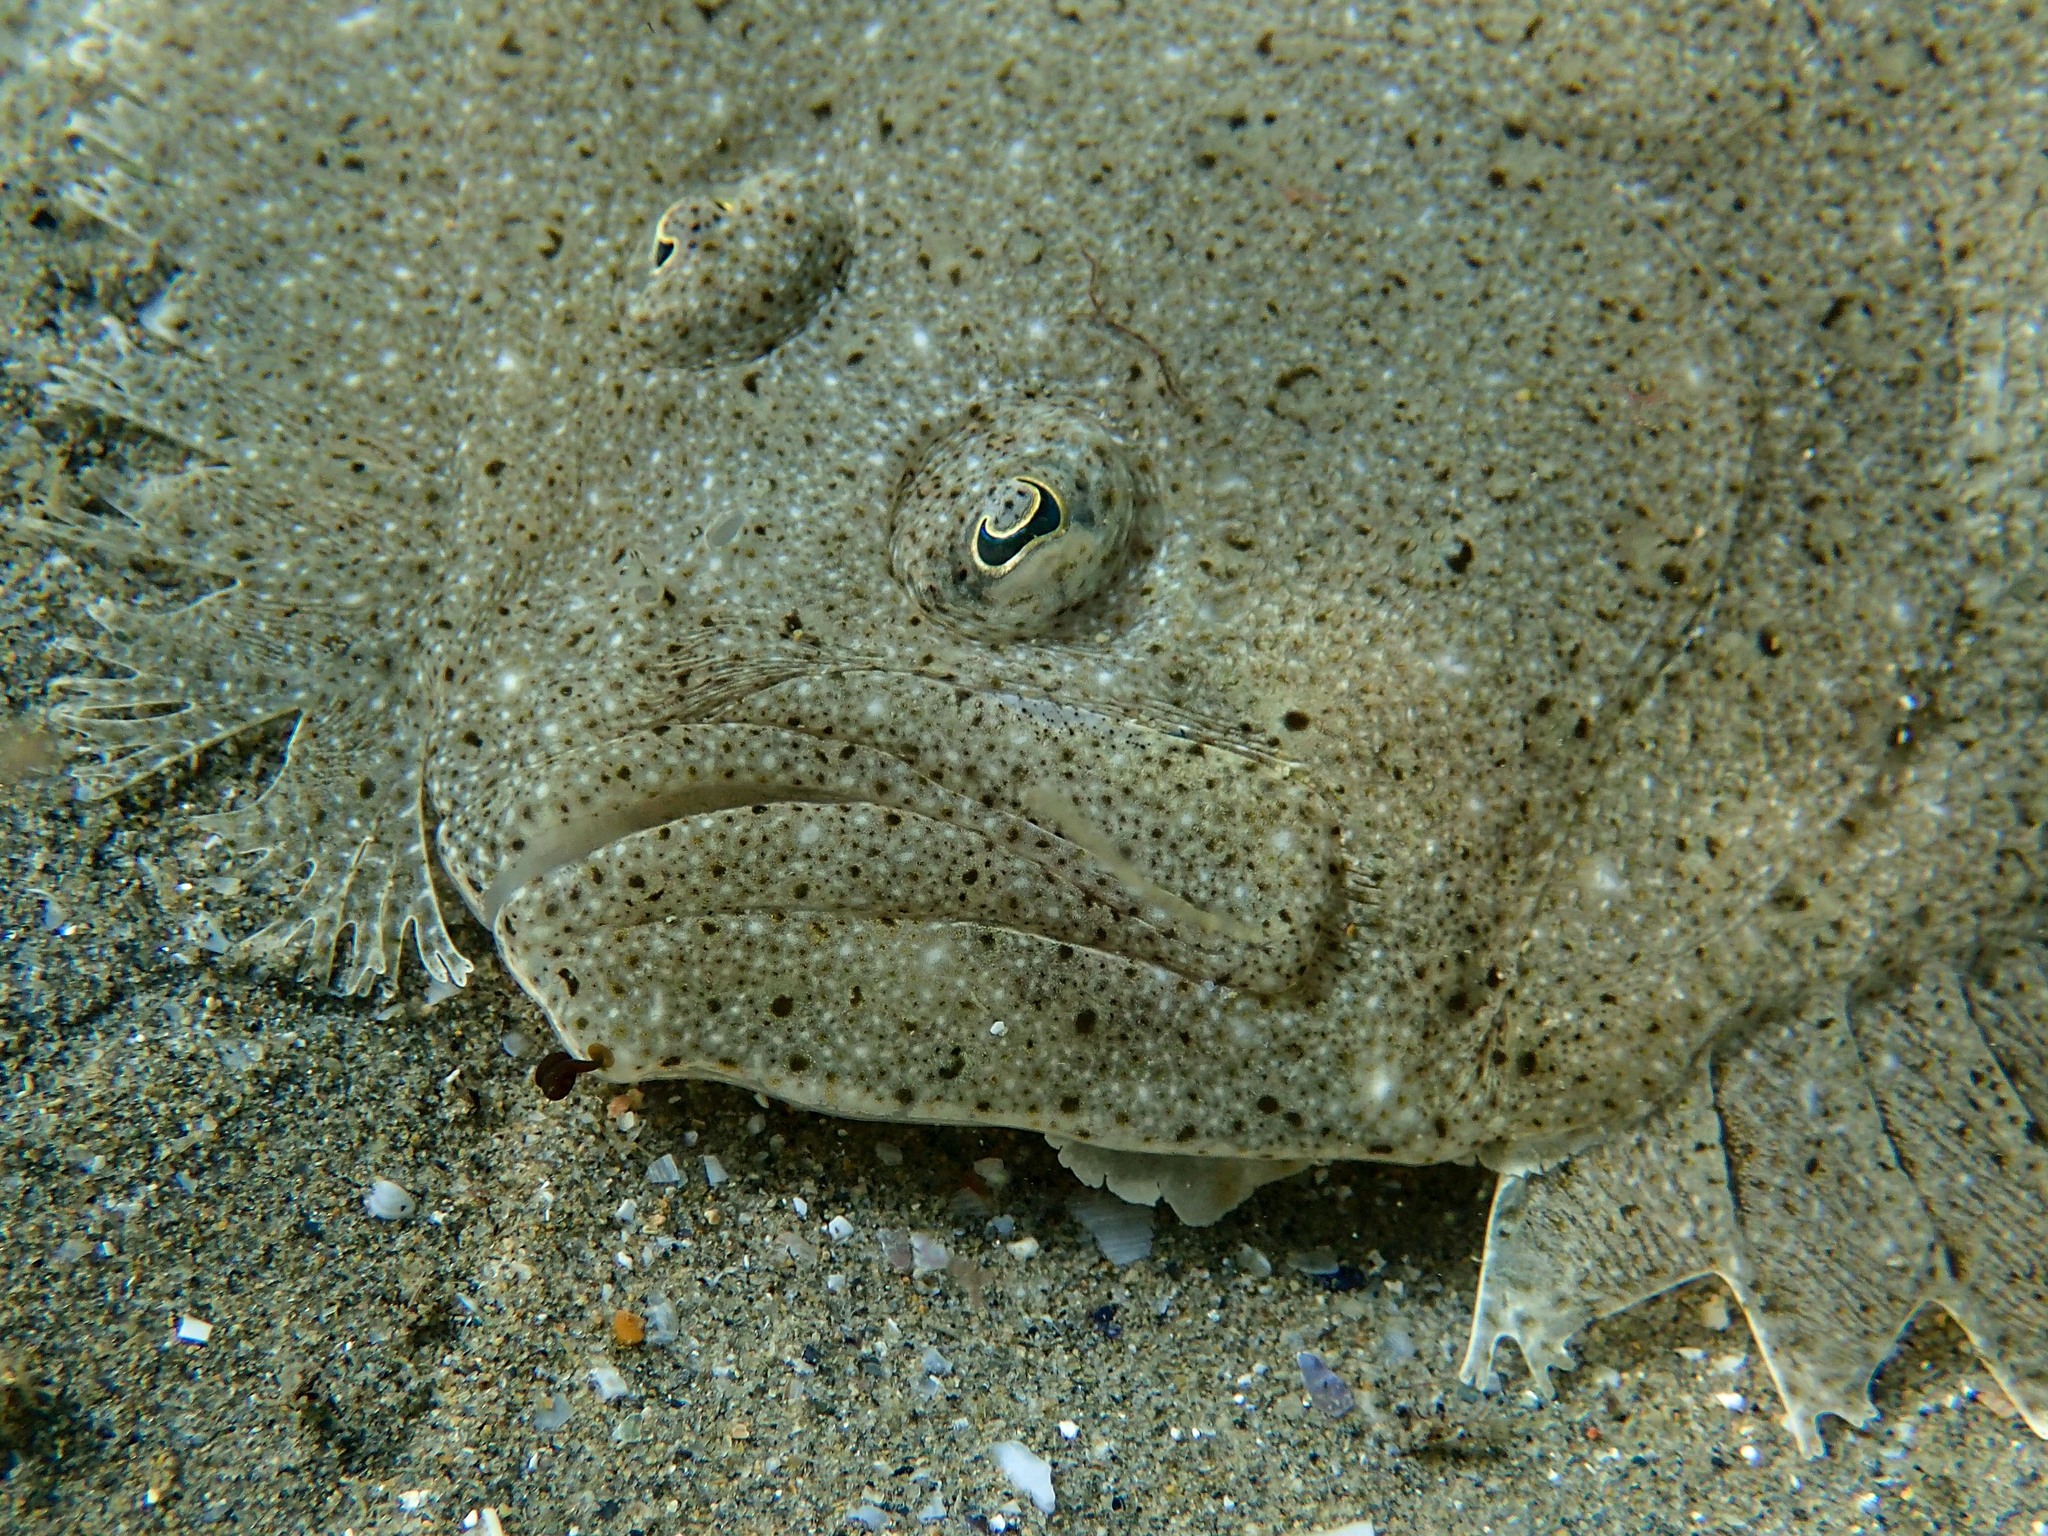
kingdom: Animalia
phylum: Chordata
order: Pleuronectiformes
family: Scophthalmidae
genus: Scophthalmus
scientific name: Scophthalmus rhombus
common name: Brill
